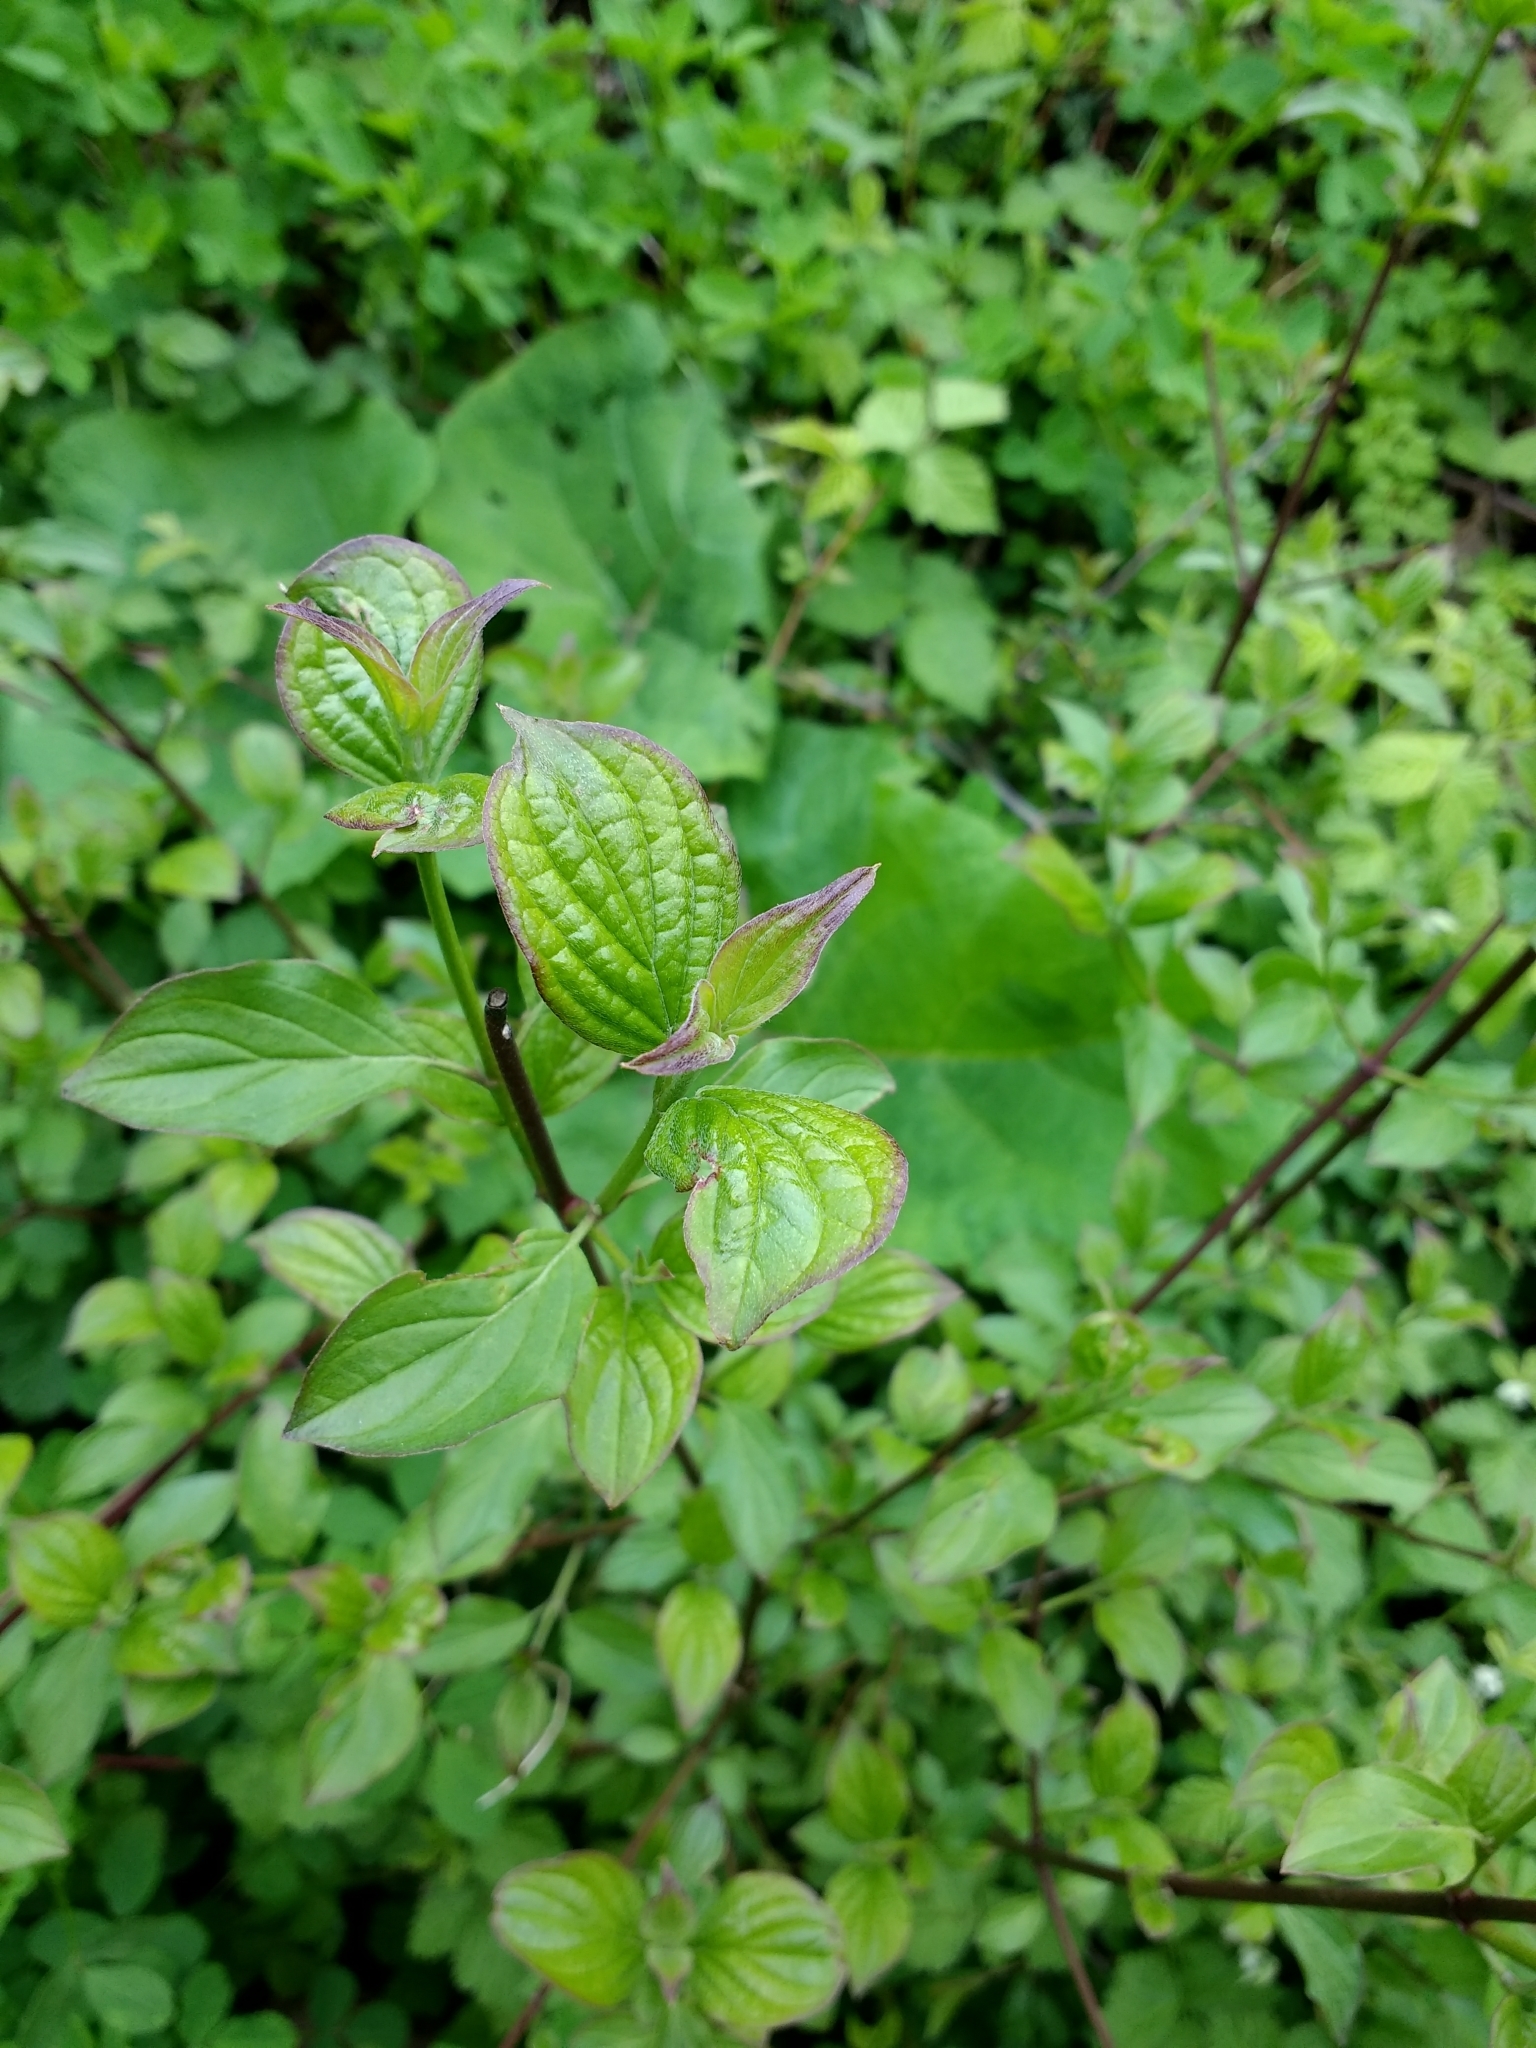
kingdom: Plantae
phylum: Tracheophyta
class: Magnoliopsida
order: Cornales
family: Cornaceae
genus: Cornus
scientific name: Cornus sanguinea
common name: Dogwood
